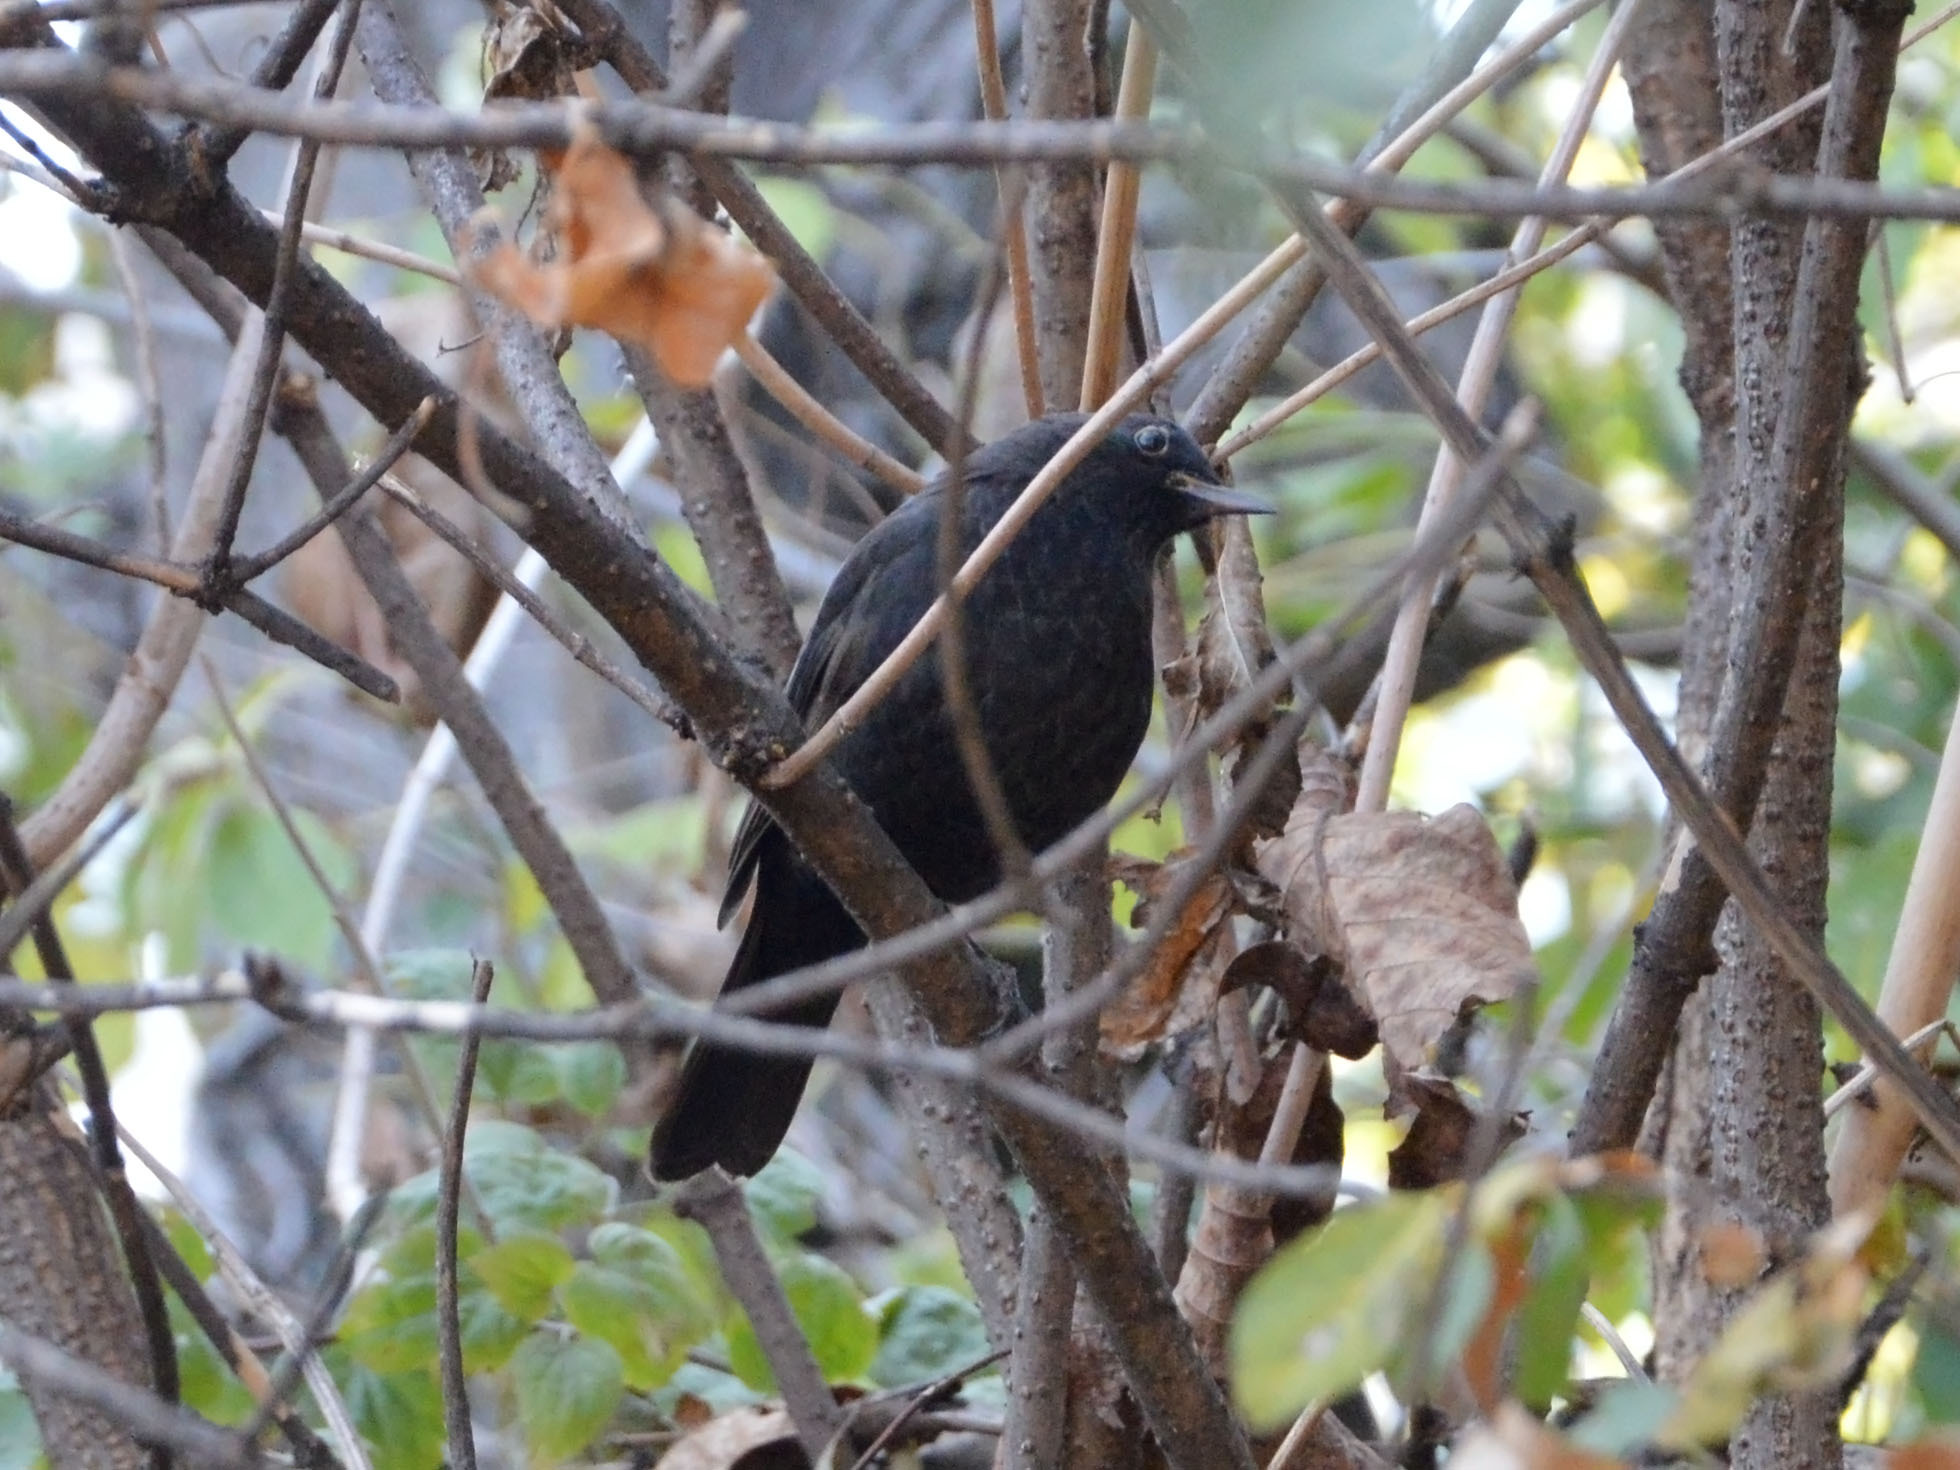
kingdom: Animalia
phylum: Chordata
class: Aves
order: Passeriformes
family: Turdidae
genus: Turdus
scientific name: Turdus merula
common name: Common blackbird
